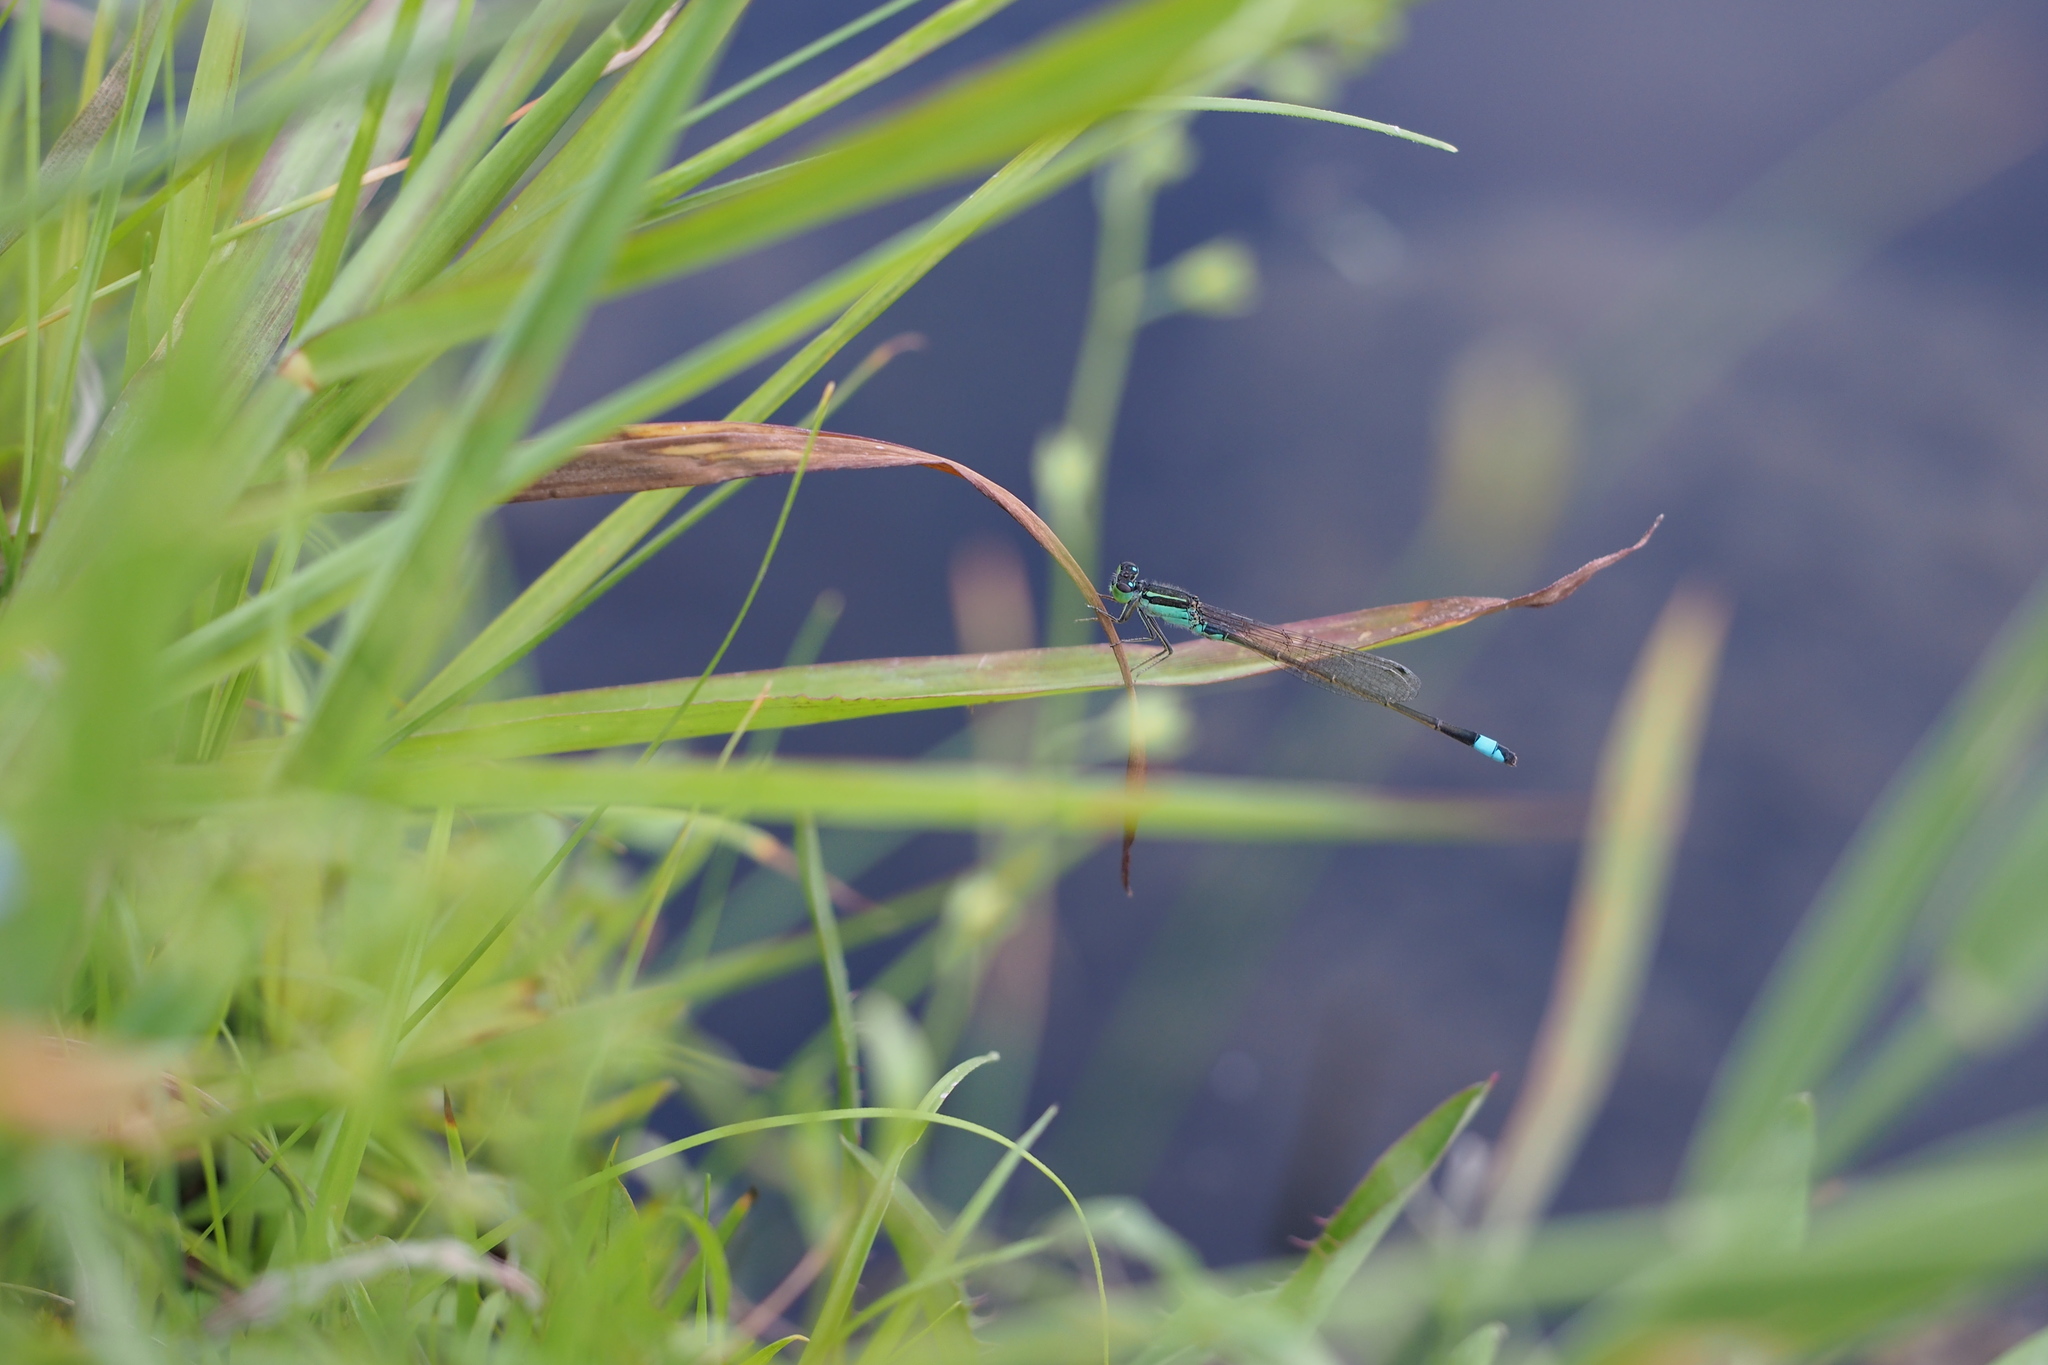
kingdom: Animalia
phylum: Arthropoda
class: Insecta
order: Odonata
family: Coenagrionidae
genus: Ischnura
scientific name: Ischnura senegalensis
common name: Tropical bluetail
